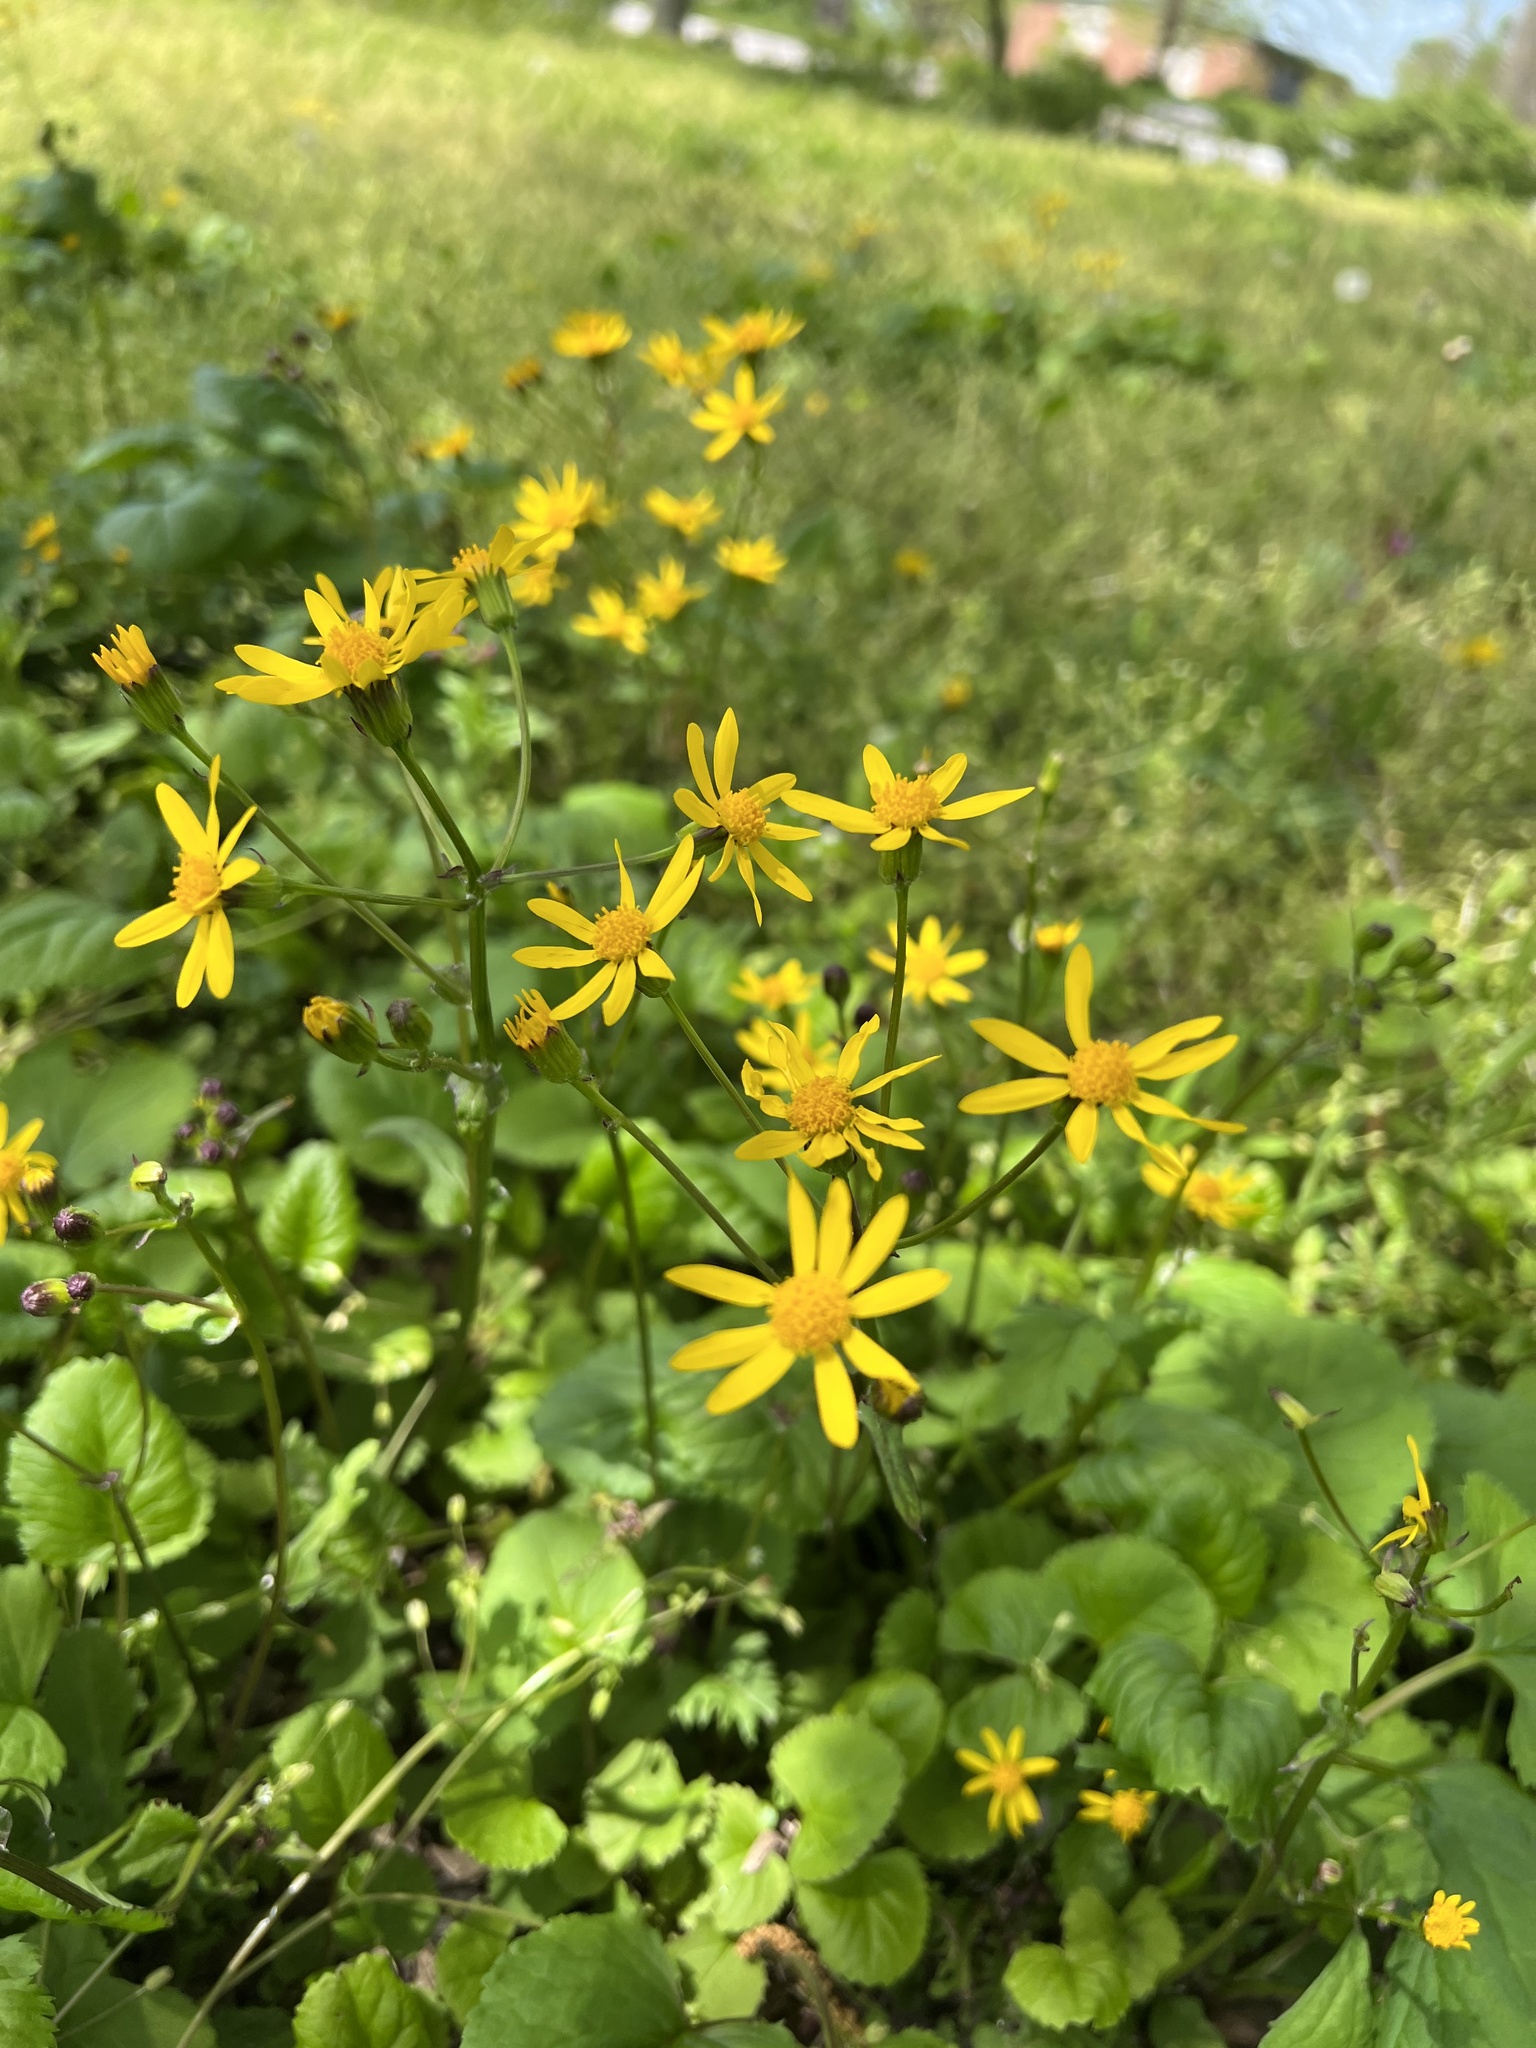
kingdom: Plantae
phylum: Tracheophyta
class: Magnoliopsida
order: Asterales
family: Asteraceae
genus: Packera
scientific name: Packera aurea
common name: Golden groundsel
